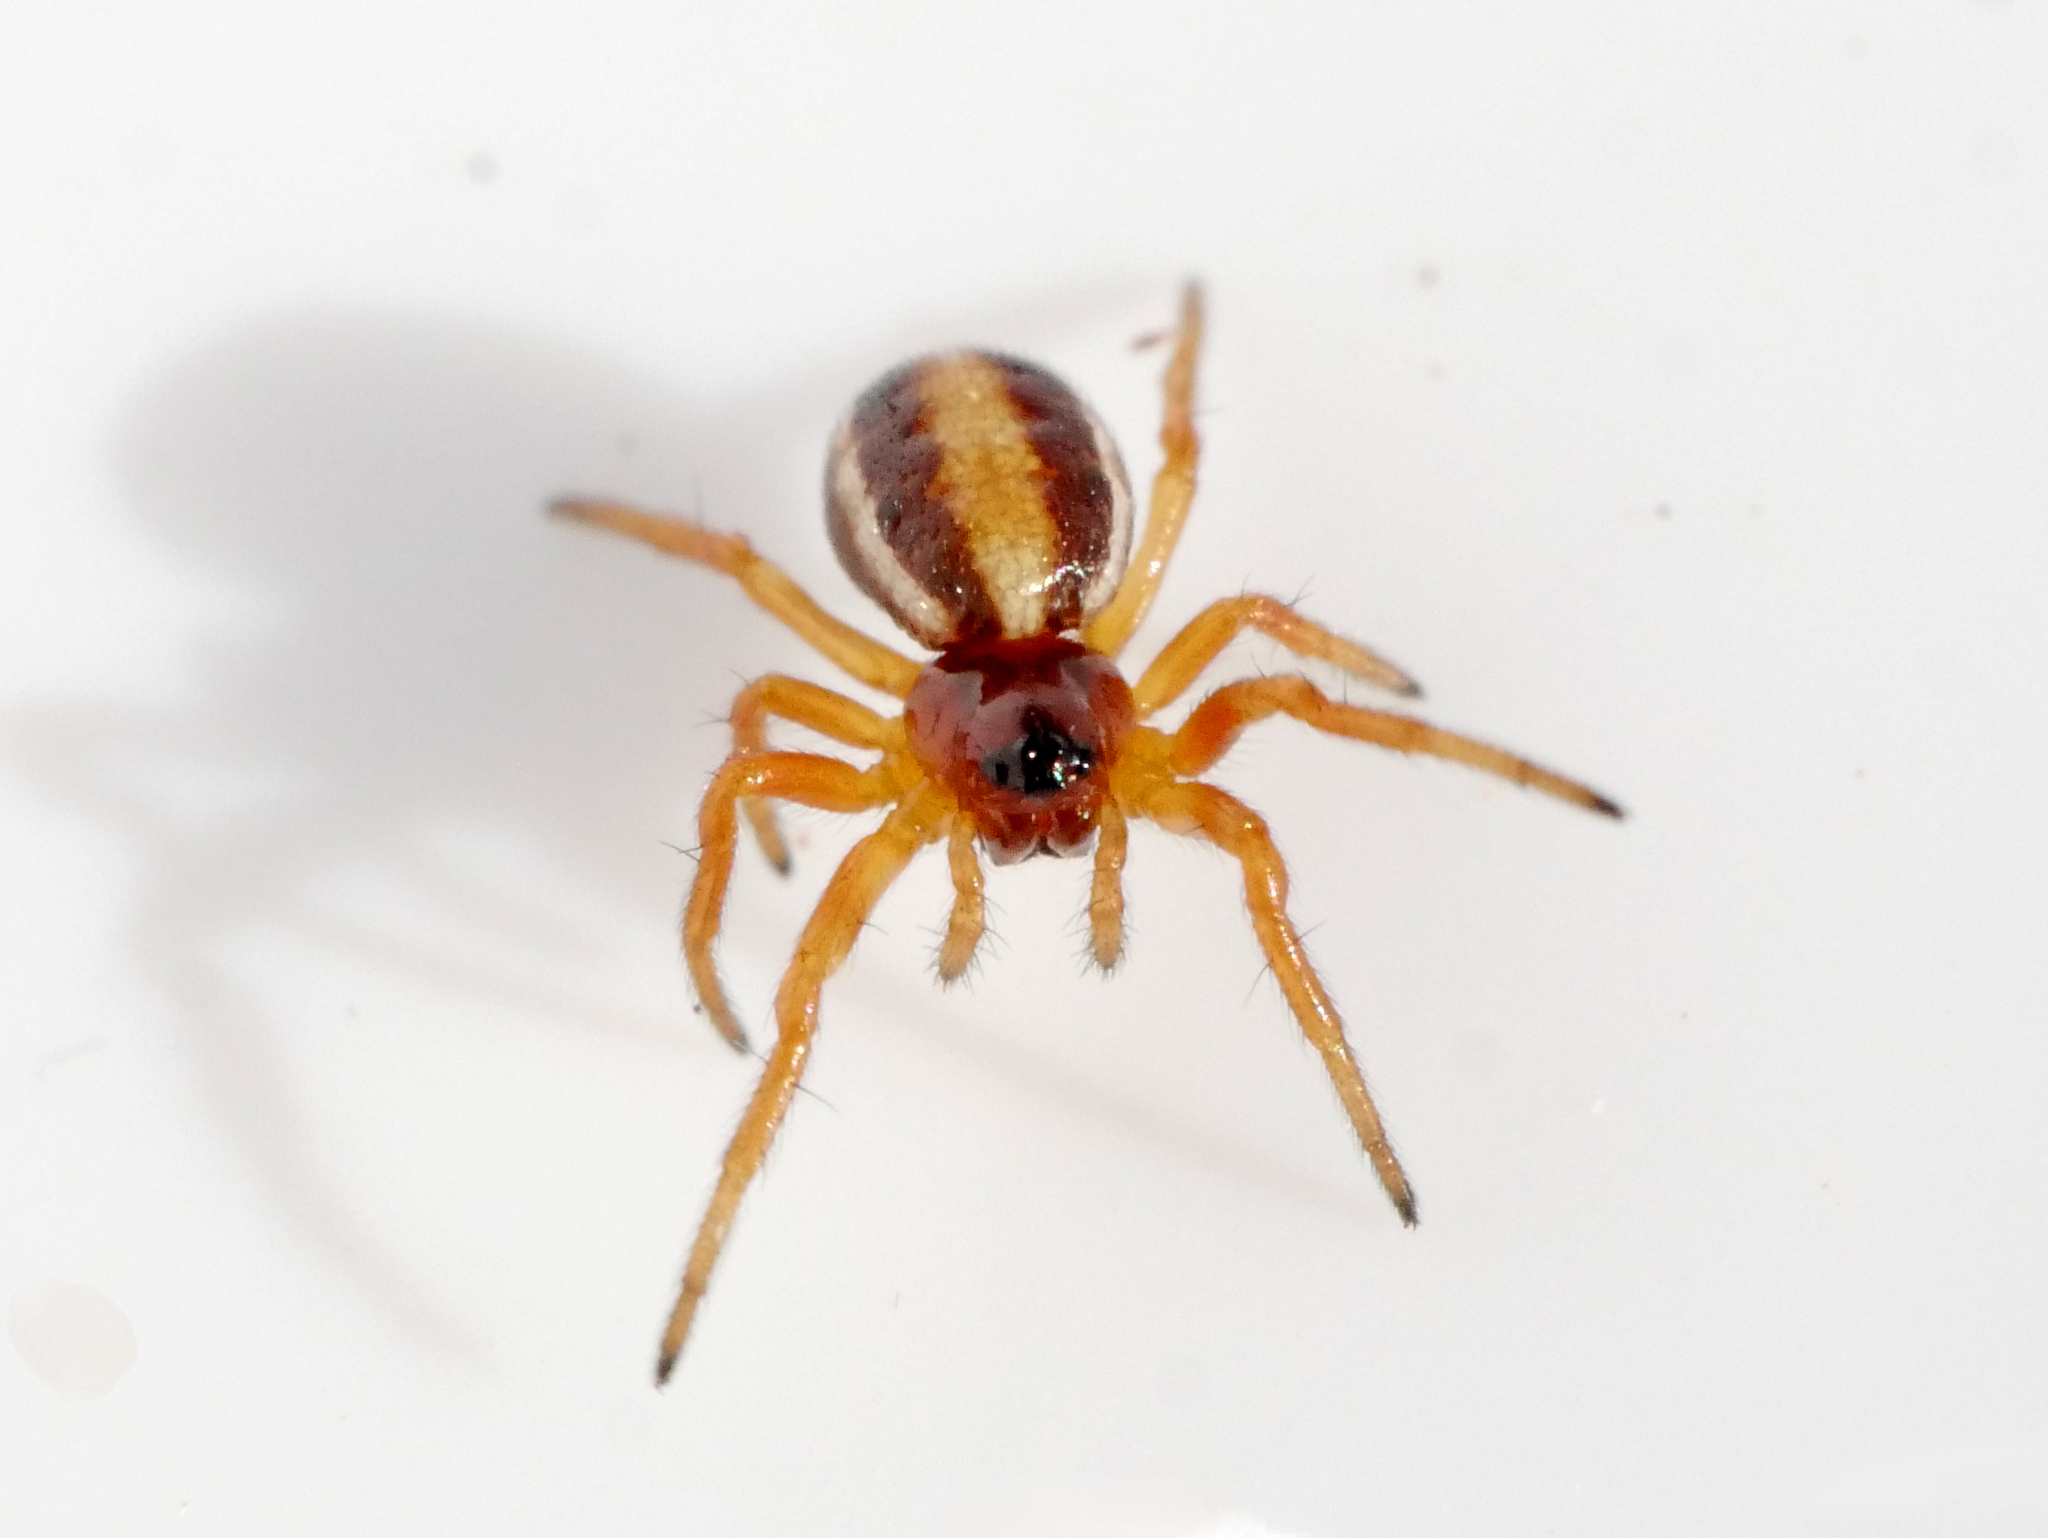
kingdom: Animalia
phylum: Arthropoda
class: Arachnida
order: Araneae
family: Araneidae
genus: Hypsosinga
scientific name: Hypsosinga pygmaea
